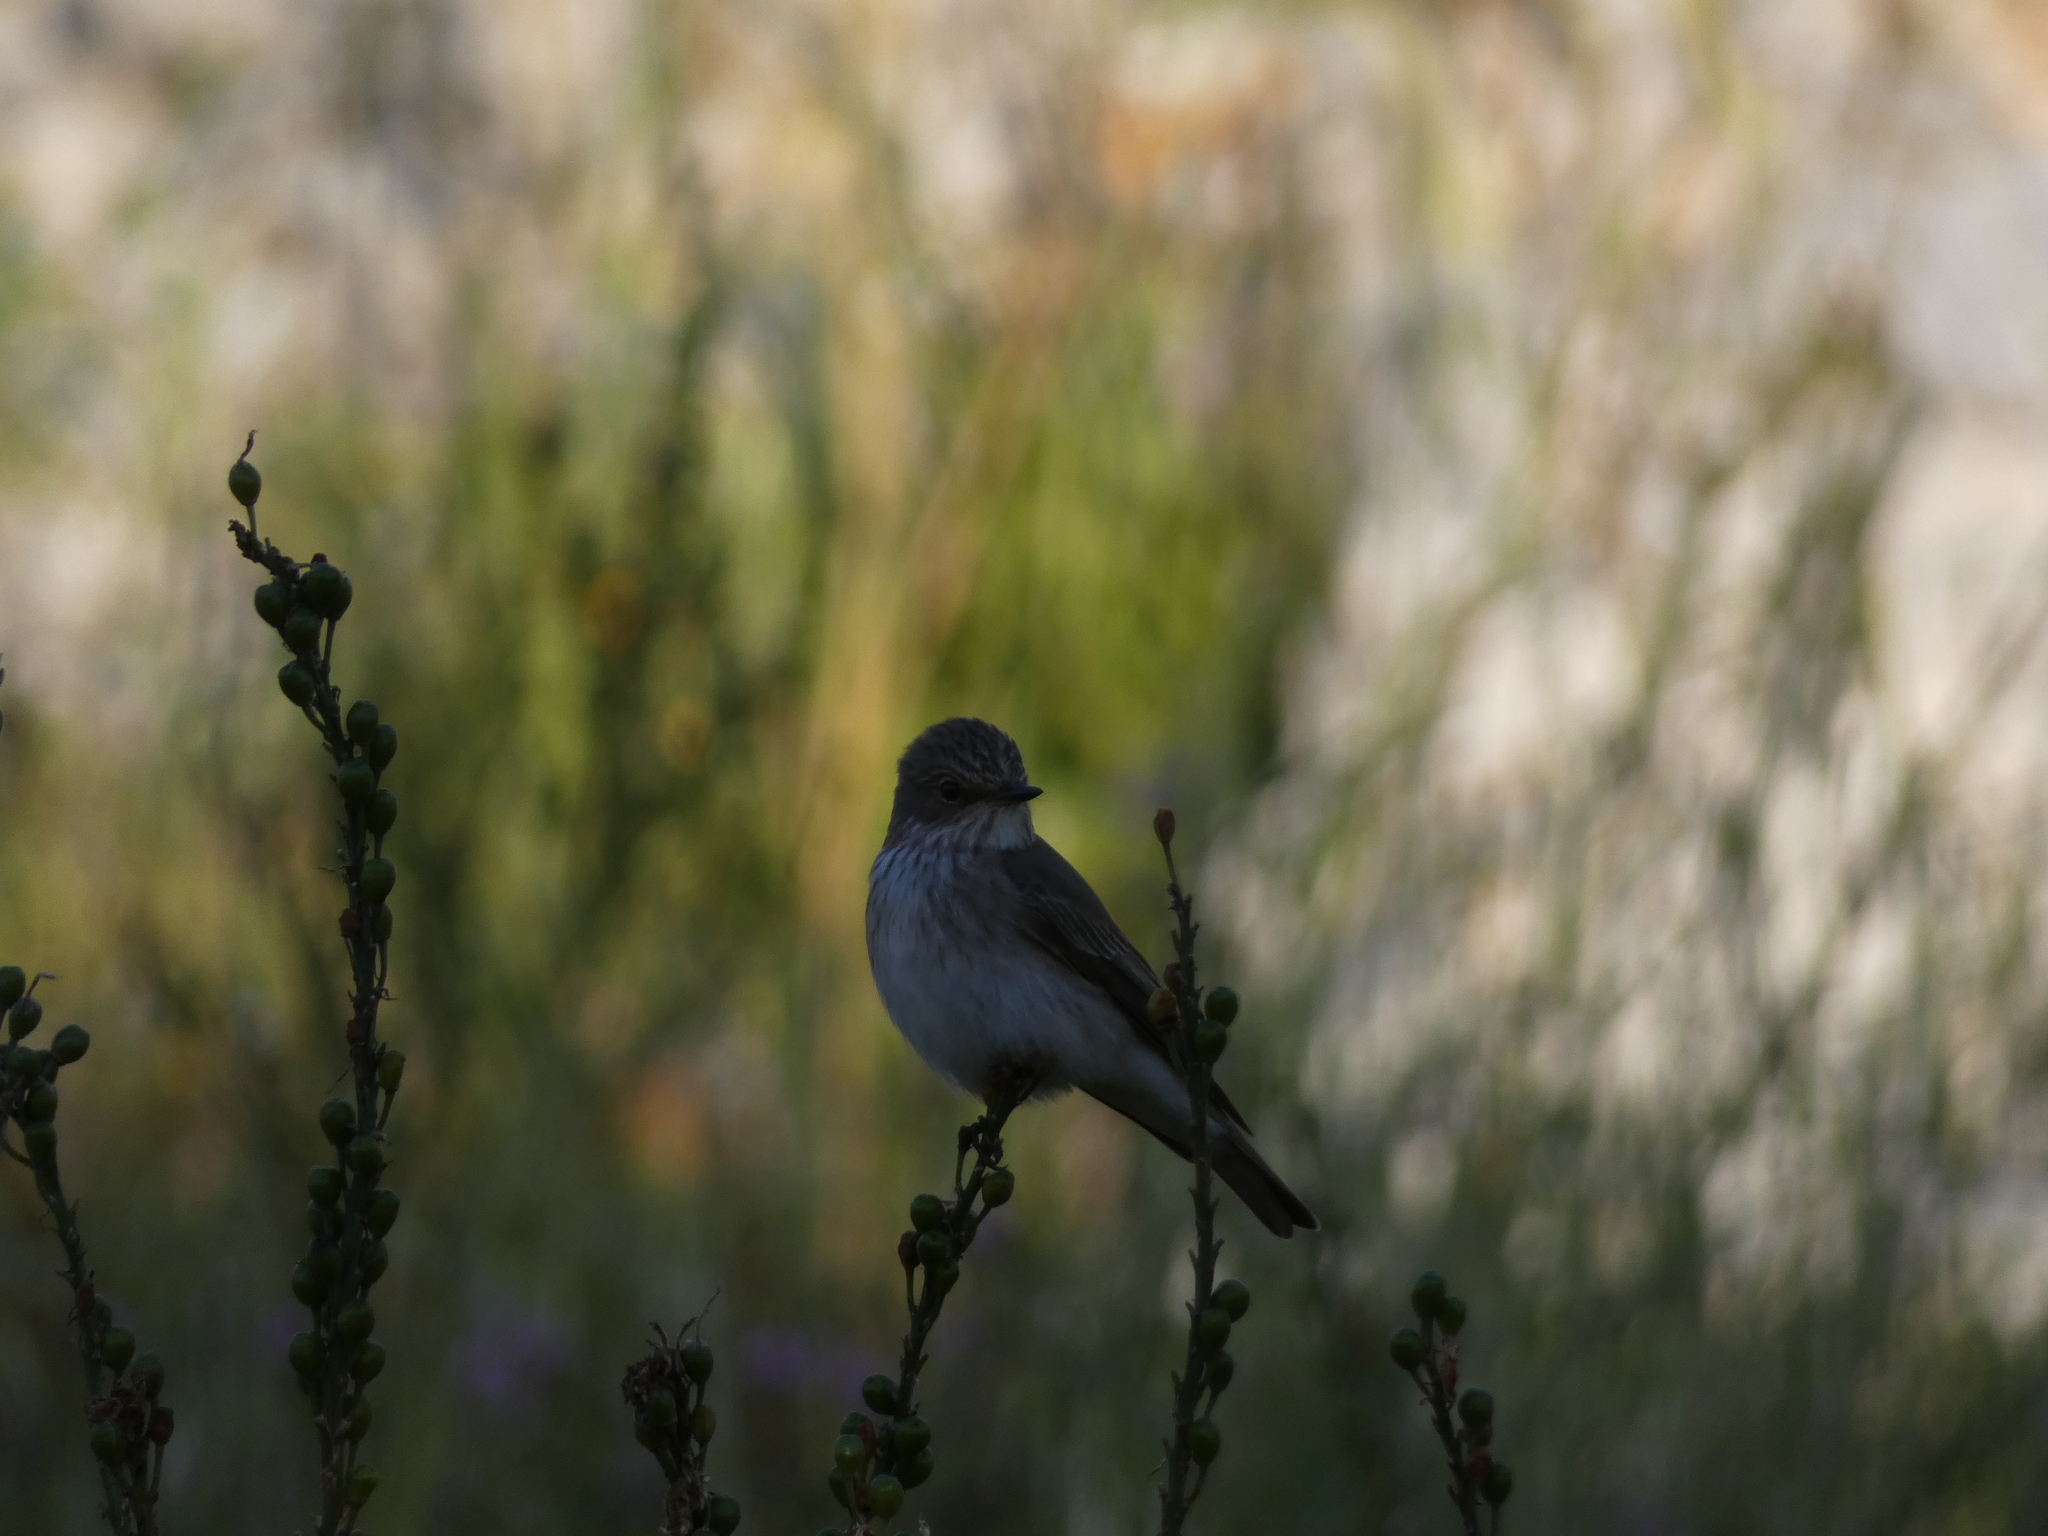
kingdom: Animalia
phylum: Chordata
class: Aves
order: Passeriformes
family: Muscicapidae
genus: Muscicapa
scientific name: Muscicapa striata
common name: Spotted flycatcher
